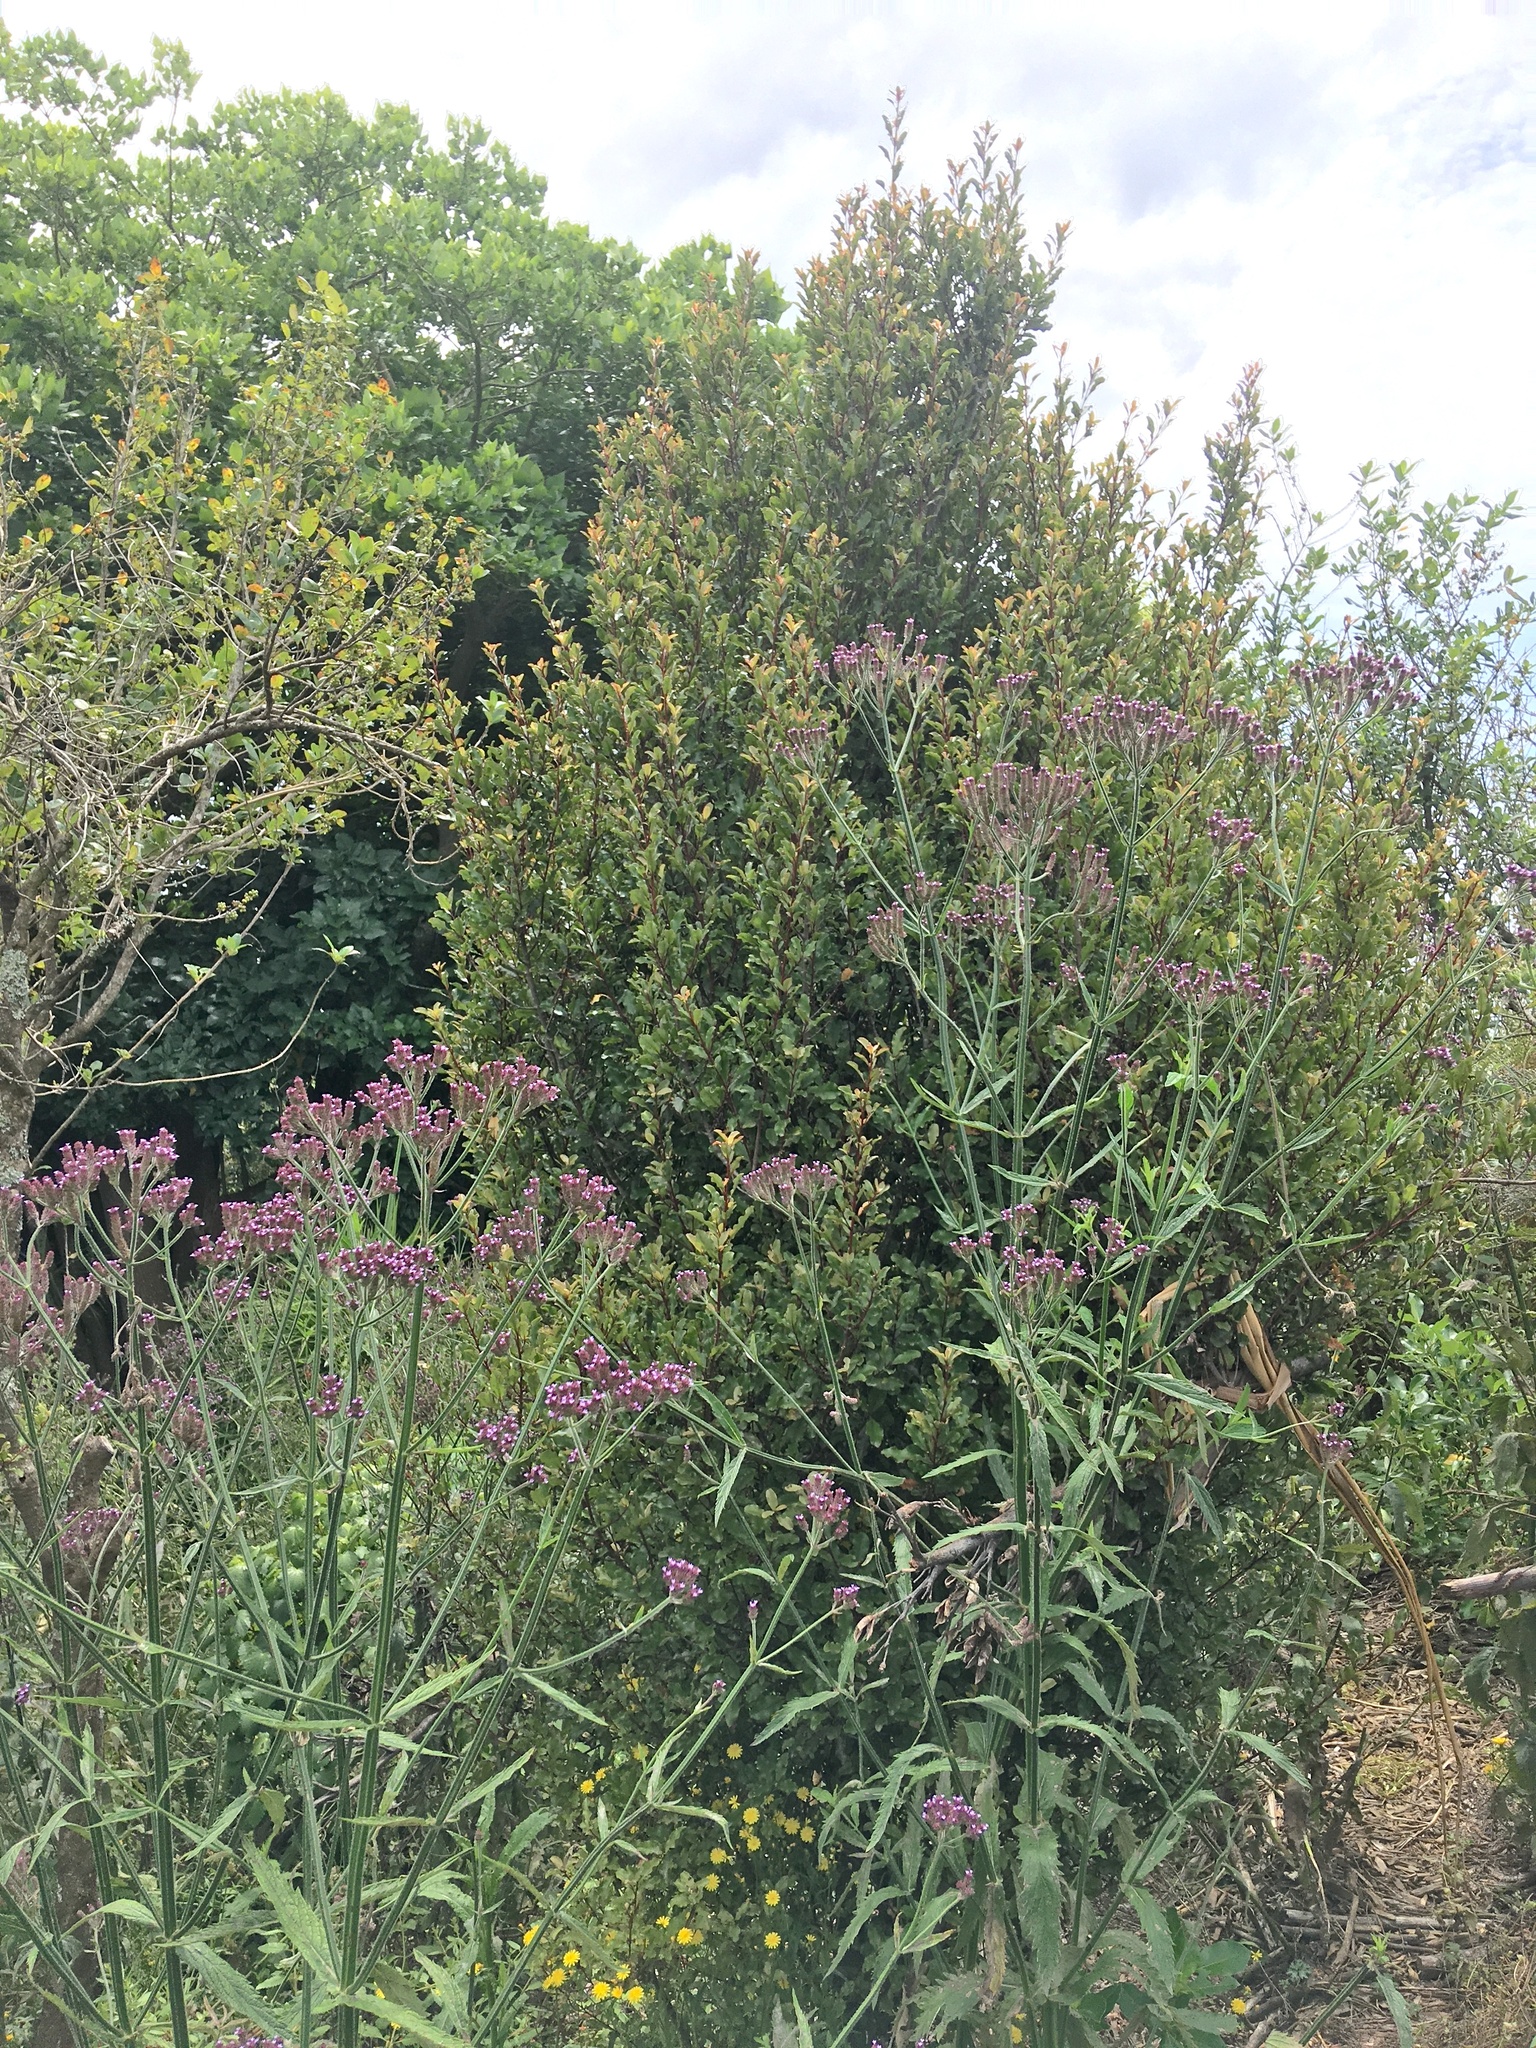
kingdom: Plantae
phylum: Tracheophyta
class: Magnoliopsida
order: Lamiales
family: Verbenaceae
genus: Verbena
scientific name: Verbena incompta
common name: Purpletop vervain
